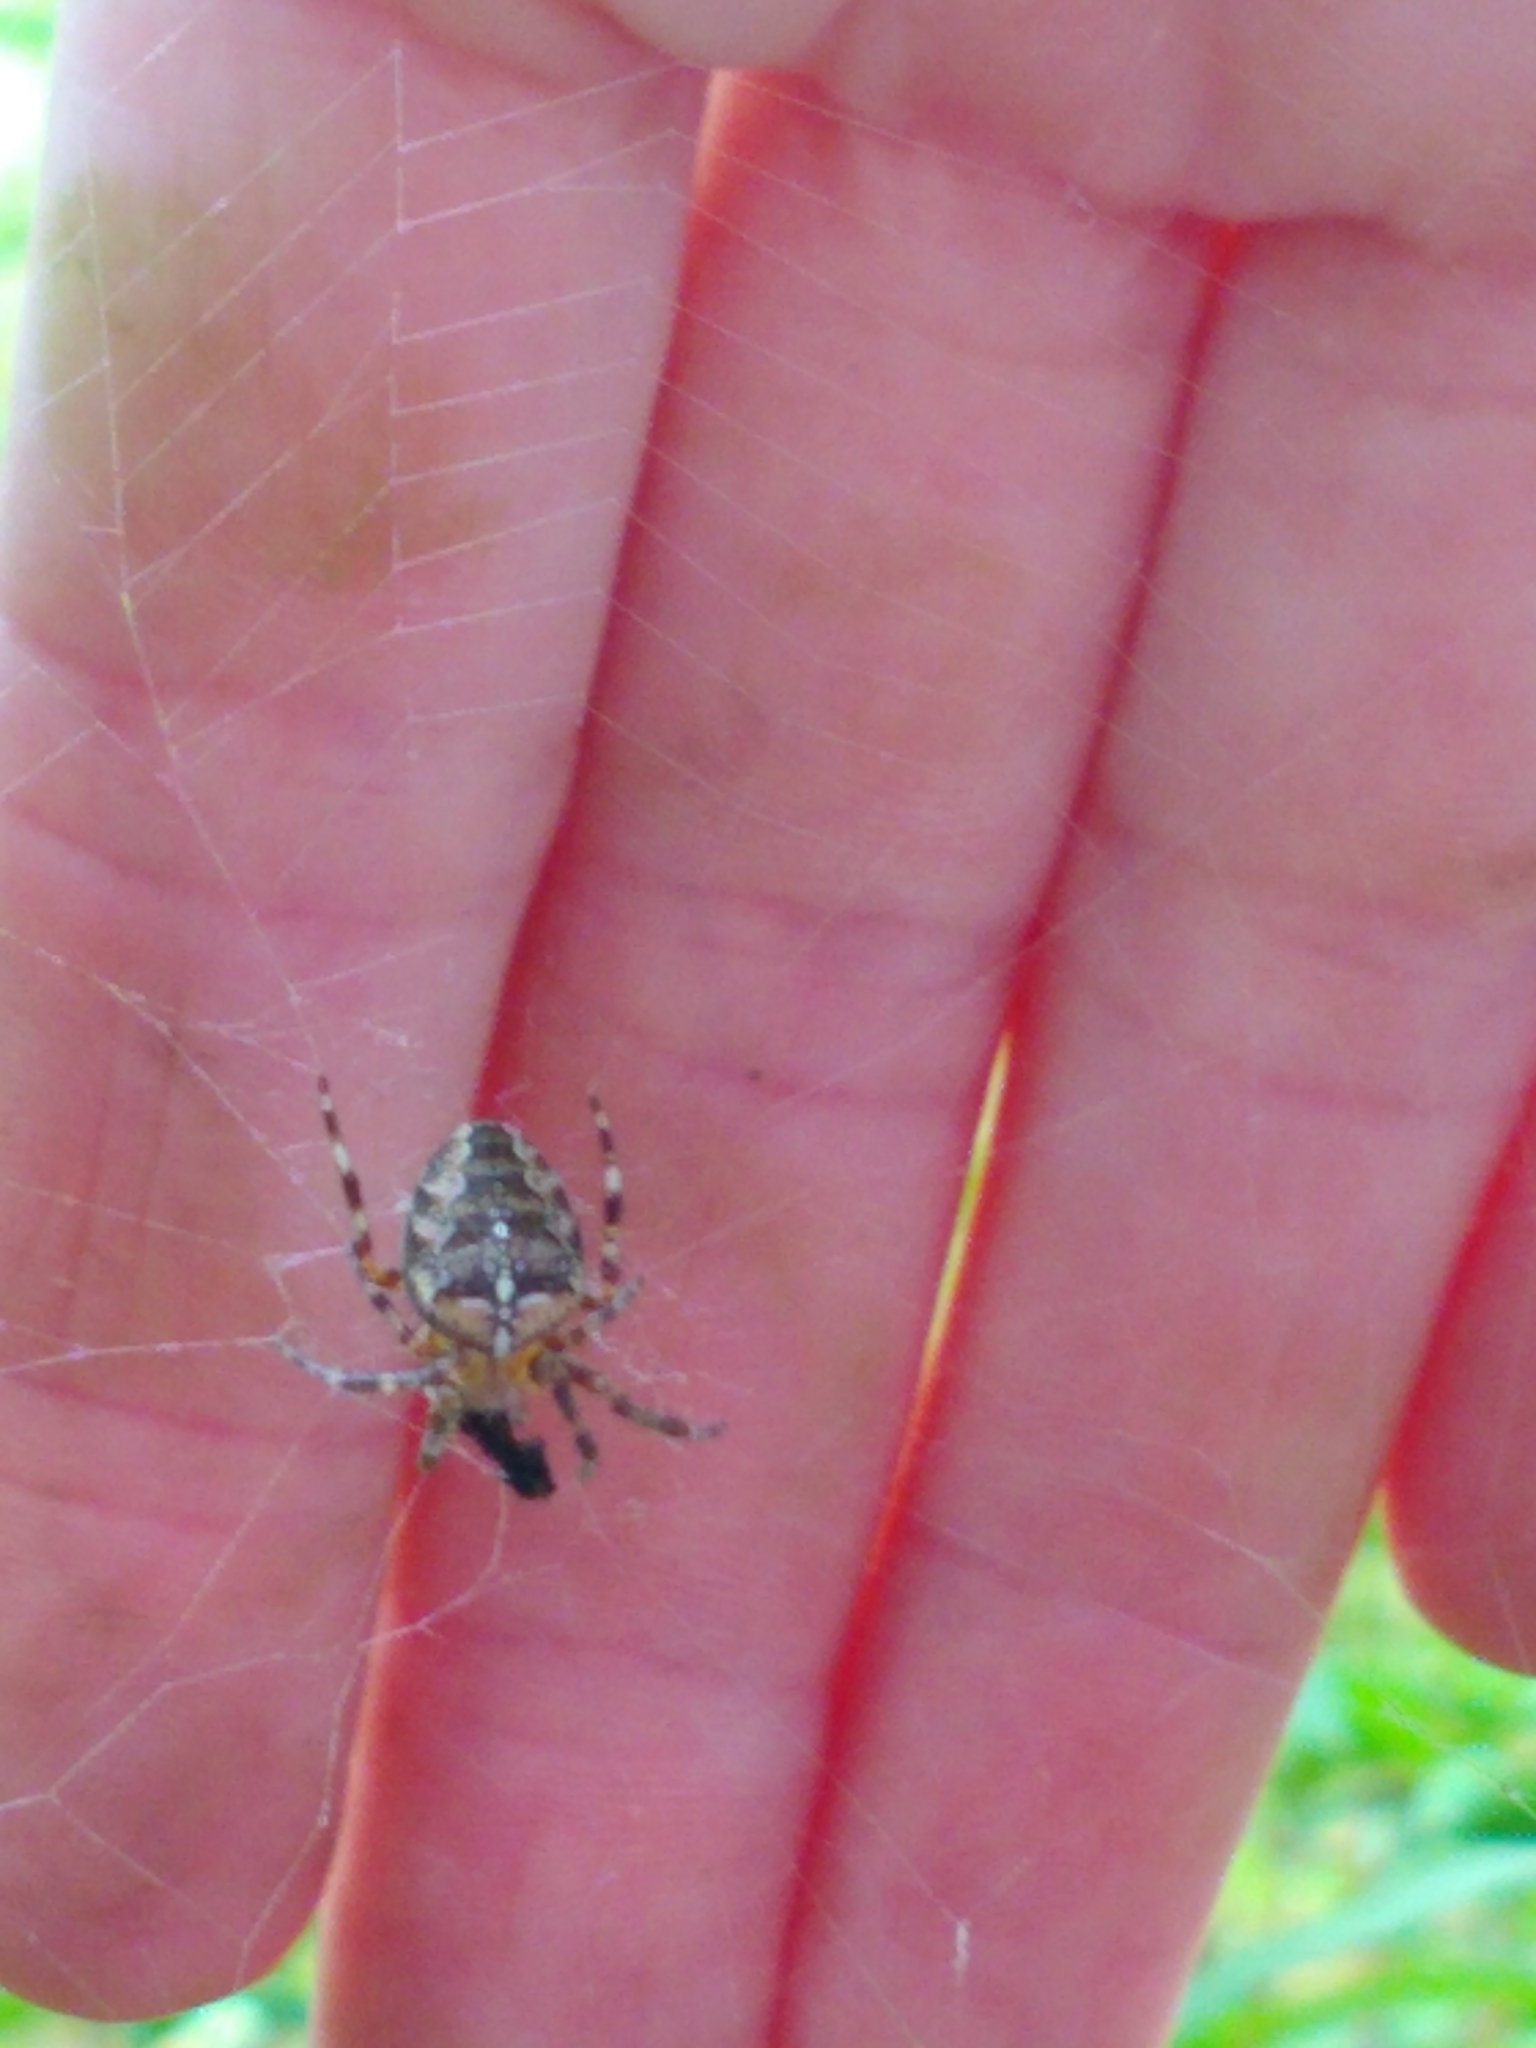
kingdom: Animalia
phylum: Arthropoda
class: Arachnida
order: Araneae
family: Araneidae
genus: Araneus
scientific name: Araneus diadematus
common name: Cross orbweaver
